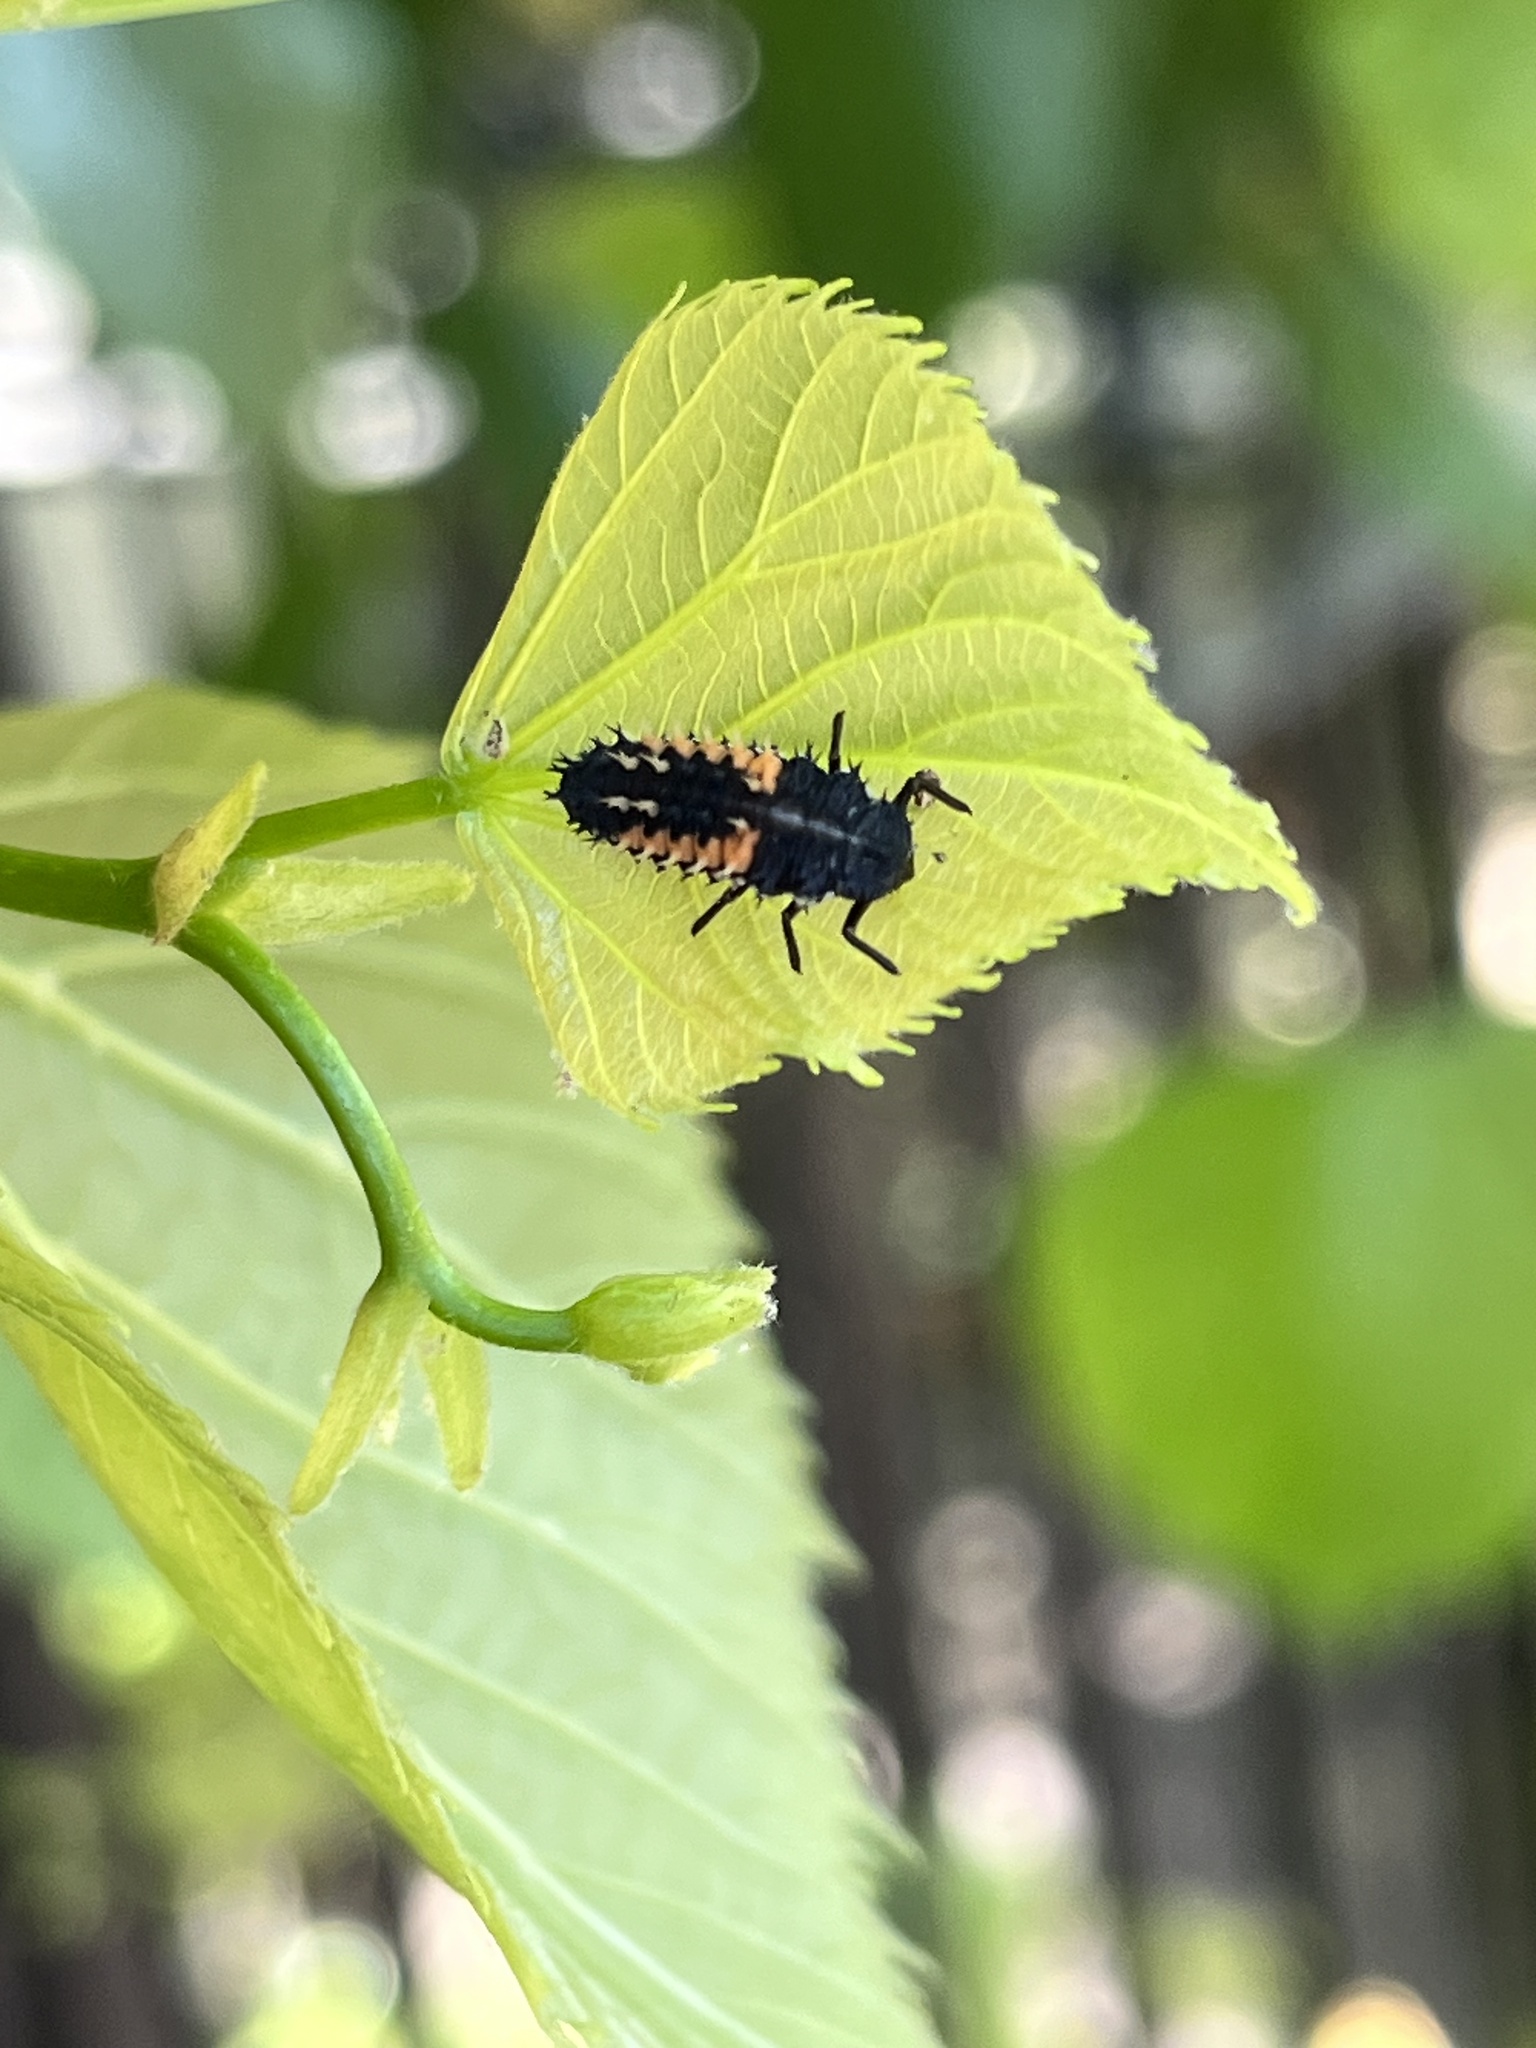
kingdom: Animalia
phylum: Arthropoda
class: Insecta
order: Coleoptera
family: Coccinellidae
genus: Harmonia
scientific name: Harmonia axyridis
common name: Harlequin ladybird
